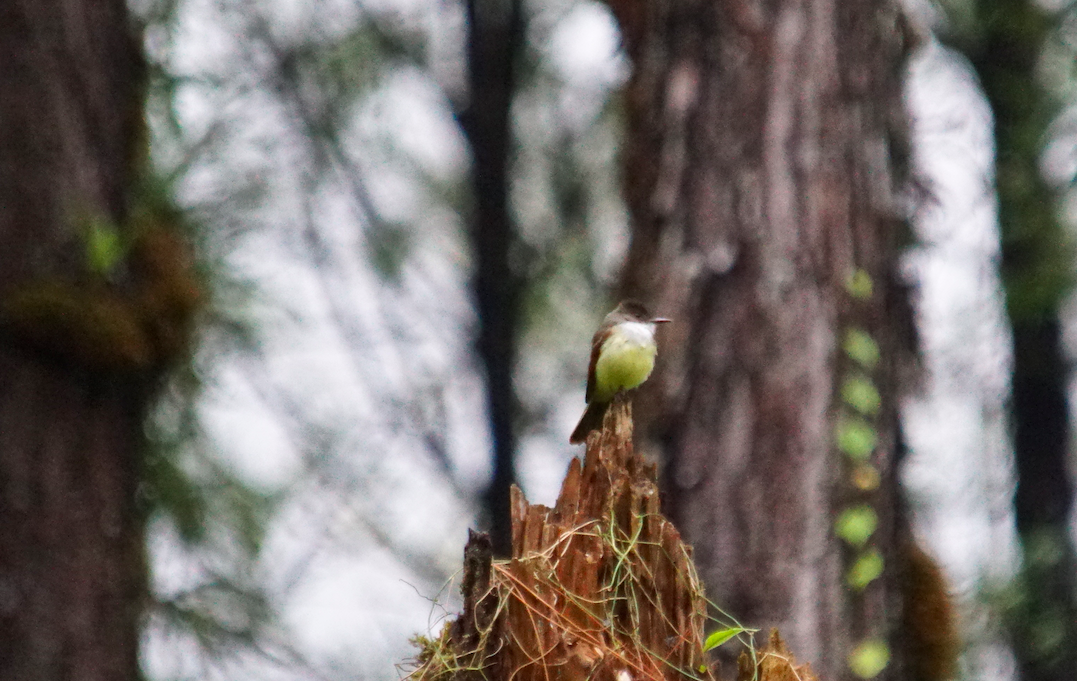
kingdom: Animalia
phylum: Chordata
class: Aves
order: Passeriformes
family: Tyrannidae
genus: Myiarchus
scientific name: Myiarchus tuberculifer
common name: Dusky-capped flycatcher
